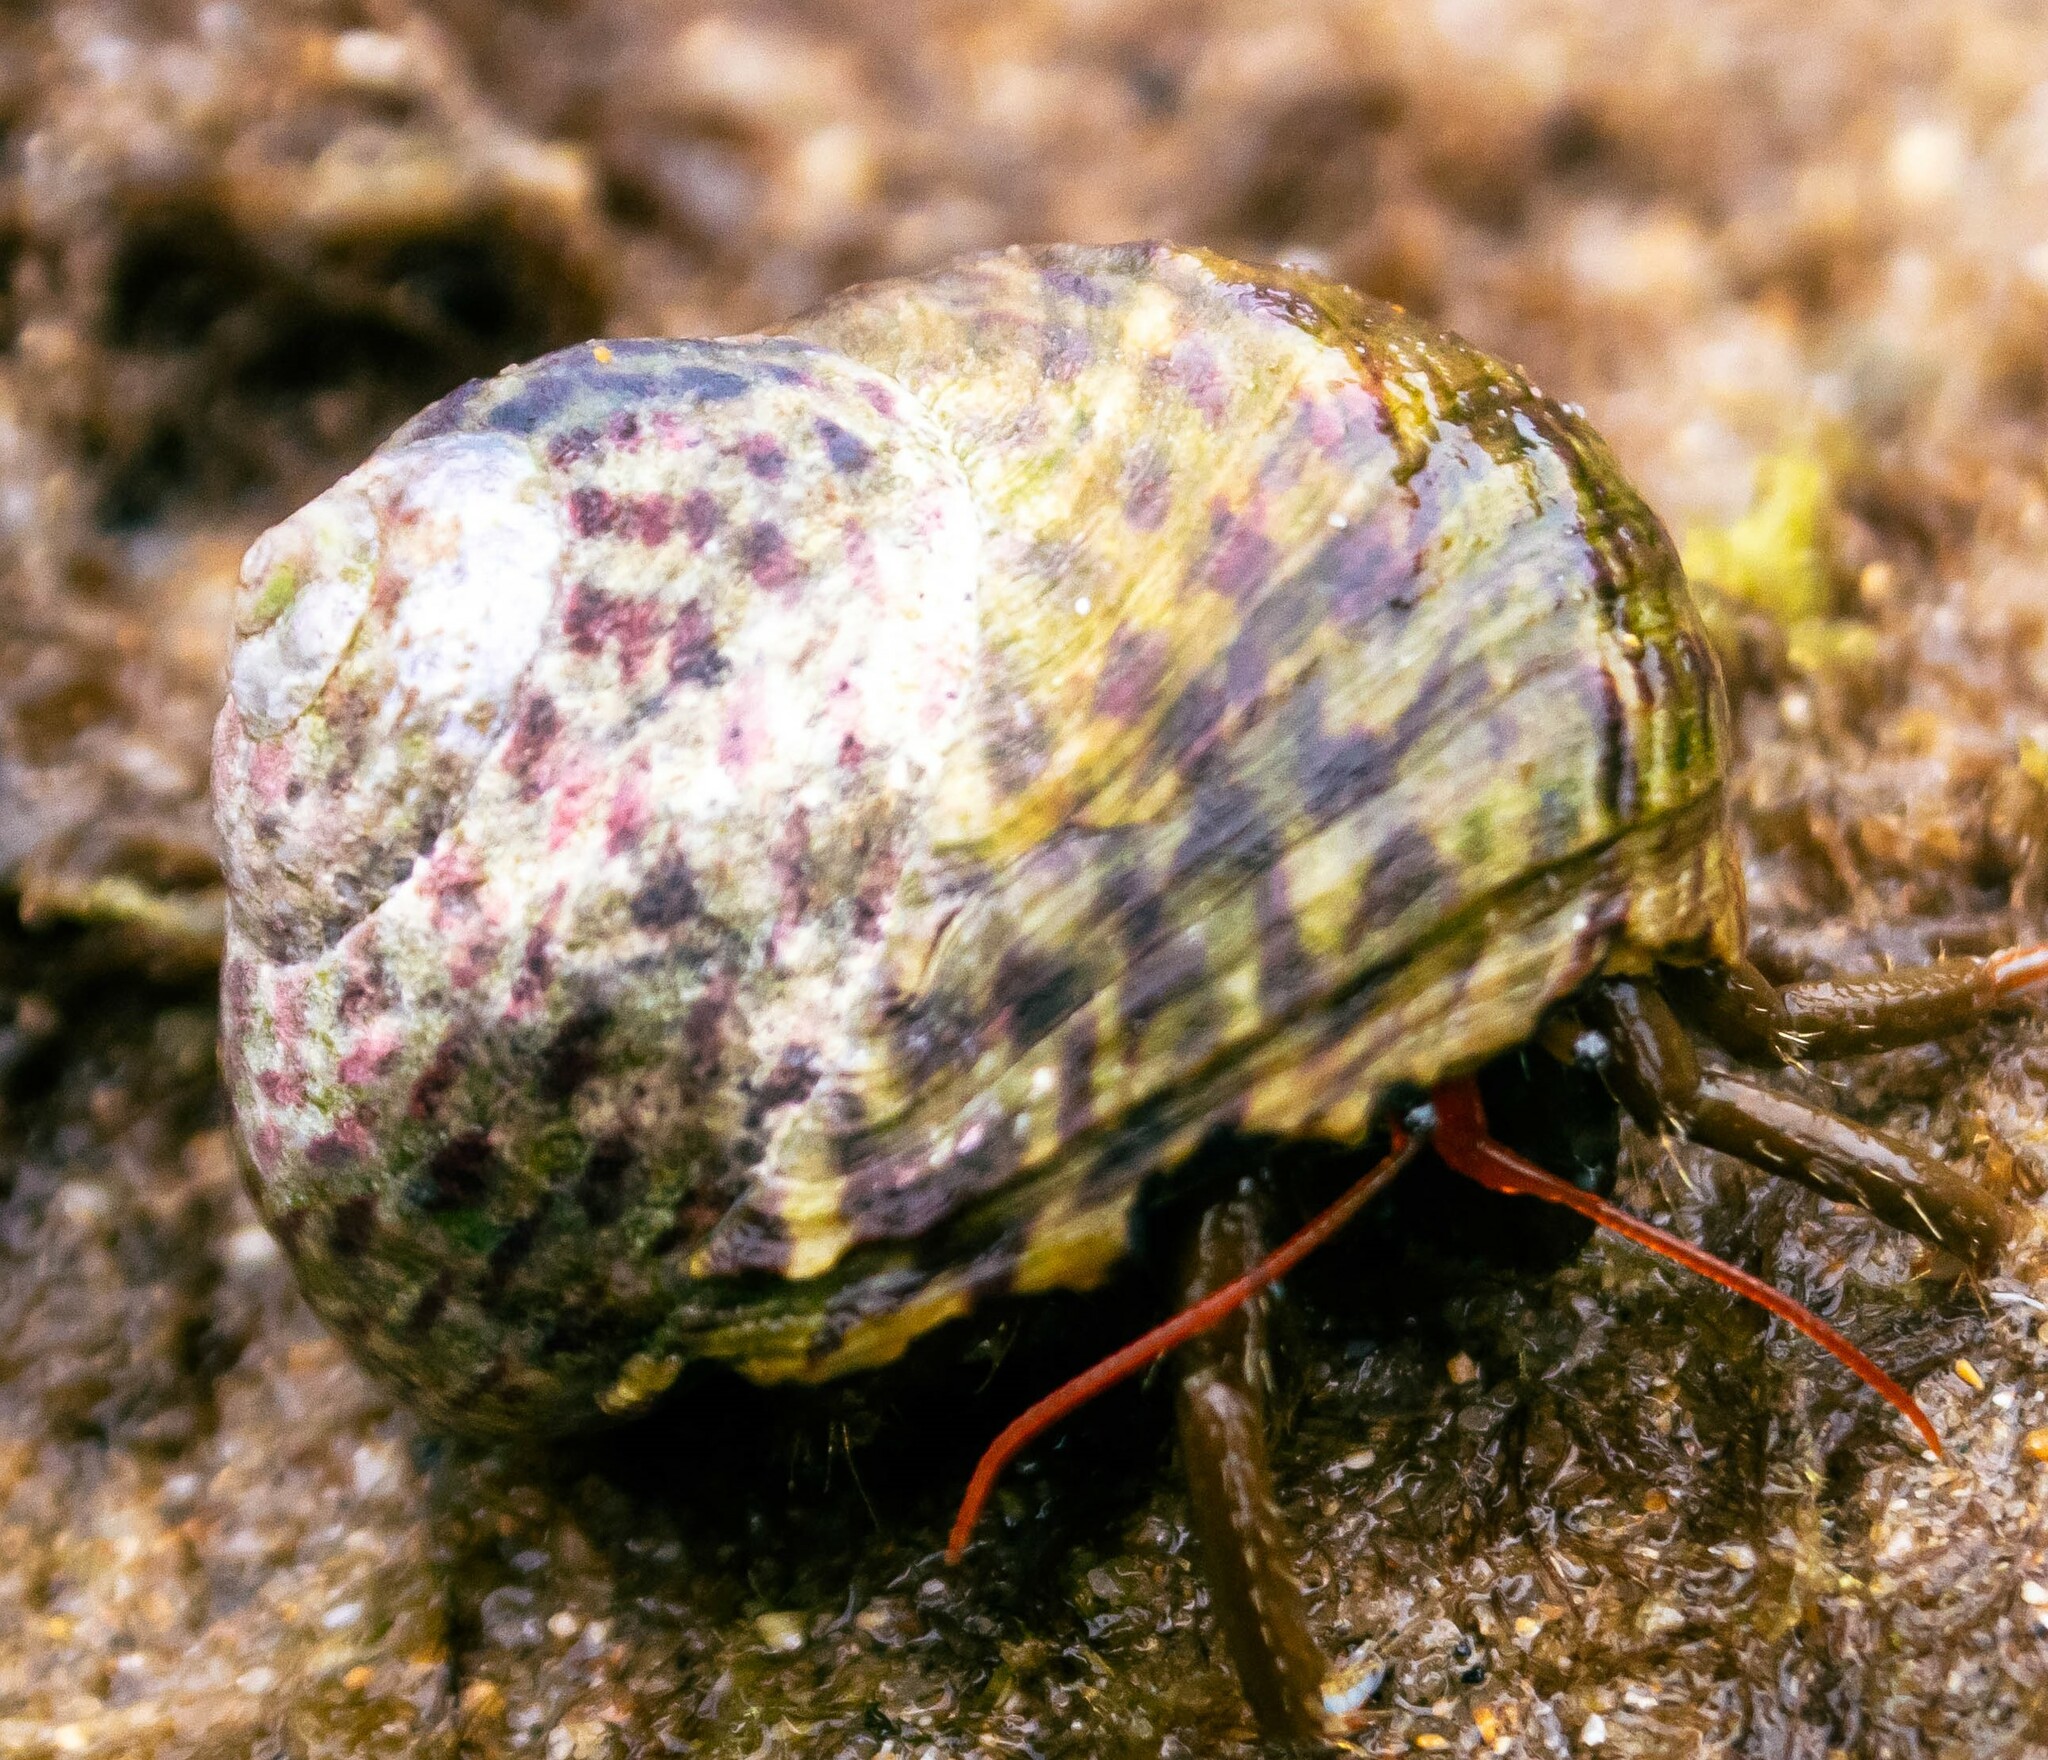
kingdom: Animalia
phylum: Arthropoda
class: Malacostraca
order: Decapoda
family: Diogenidae
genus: Clibanarius
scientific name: Clibanarius erythropus
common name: Hermit crab
